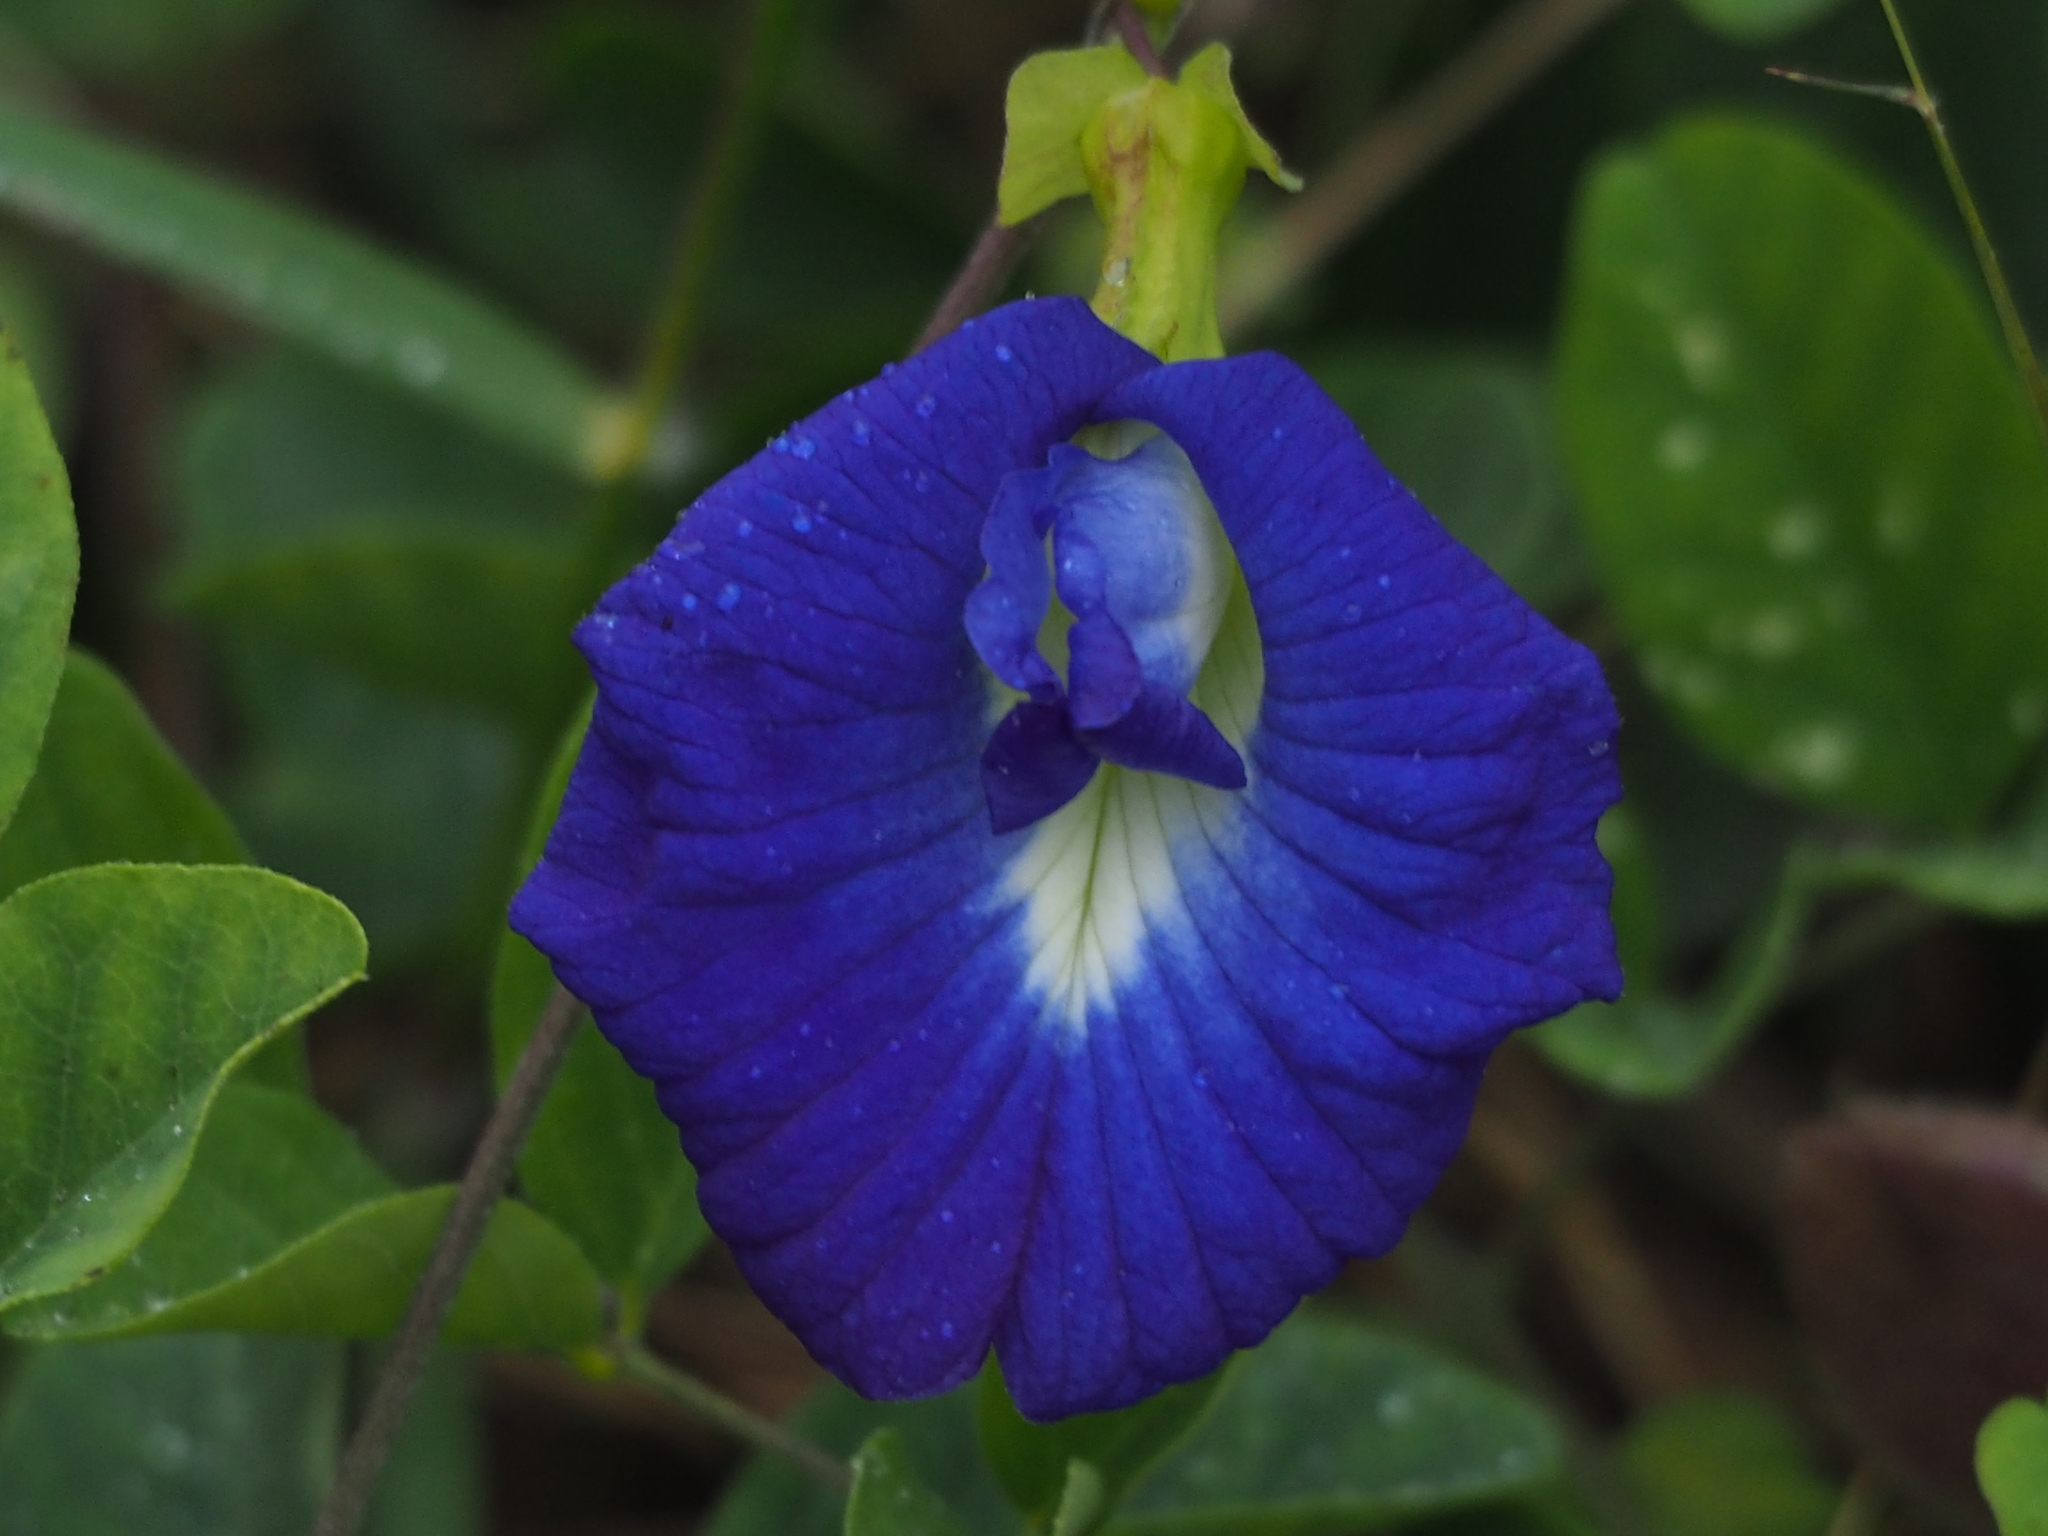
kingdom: Plantae
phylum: Tracheophyta
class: Magnoliopsida
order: Fabales
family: Fabaceae
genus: Clitoria
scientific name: Clitoria ternatea
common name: Asian pigeonwings
